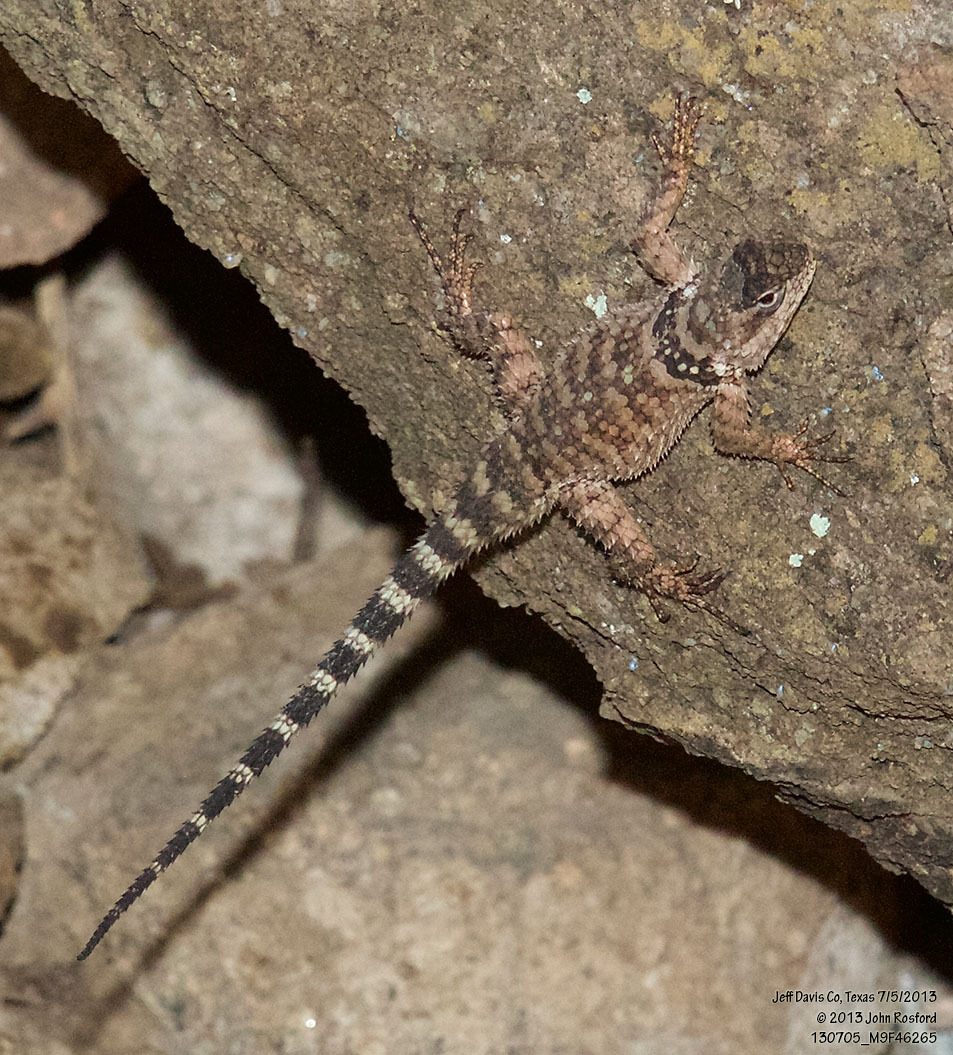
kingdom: Animalia
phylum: Chordata
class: Squamata
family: Phrynosomatidae
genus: Sceloporus
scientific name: Sceloporus poinsettii
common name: Crevice spiny lizard
